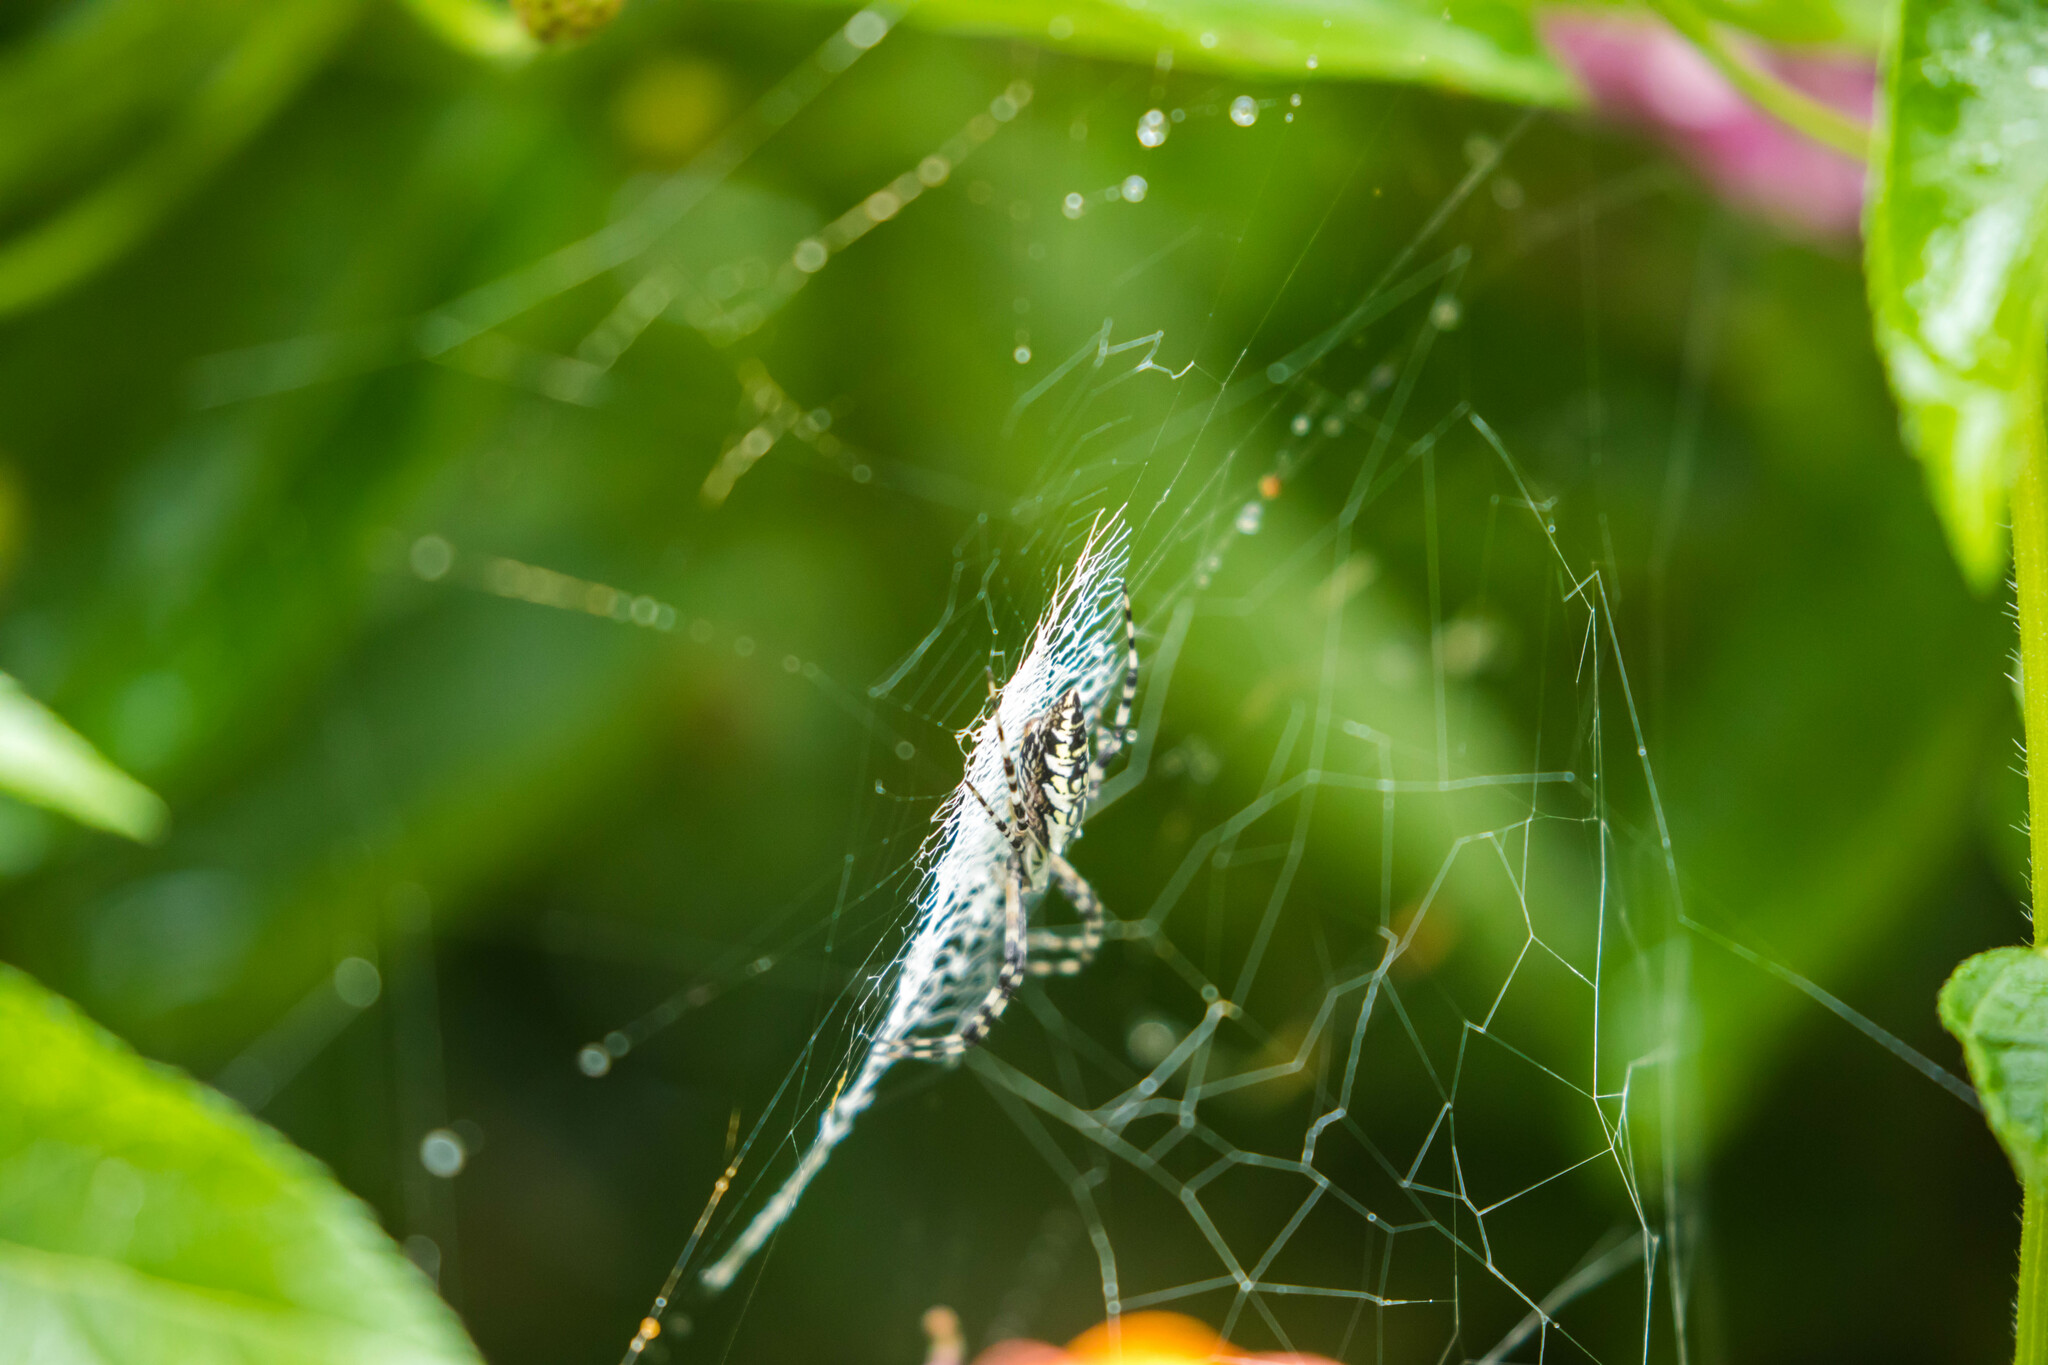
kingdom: Animalia
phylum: Arthropoda
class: Arachnida
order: Araneae
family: Araneidae
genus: Argiope
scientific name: Argiope aurantia
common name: Orb weavers
